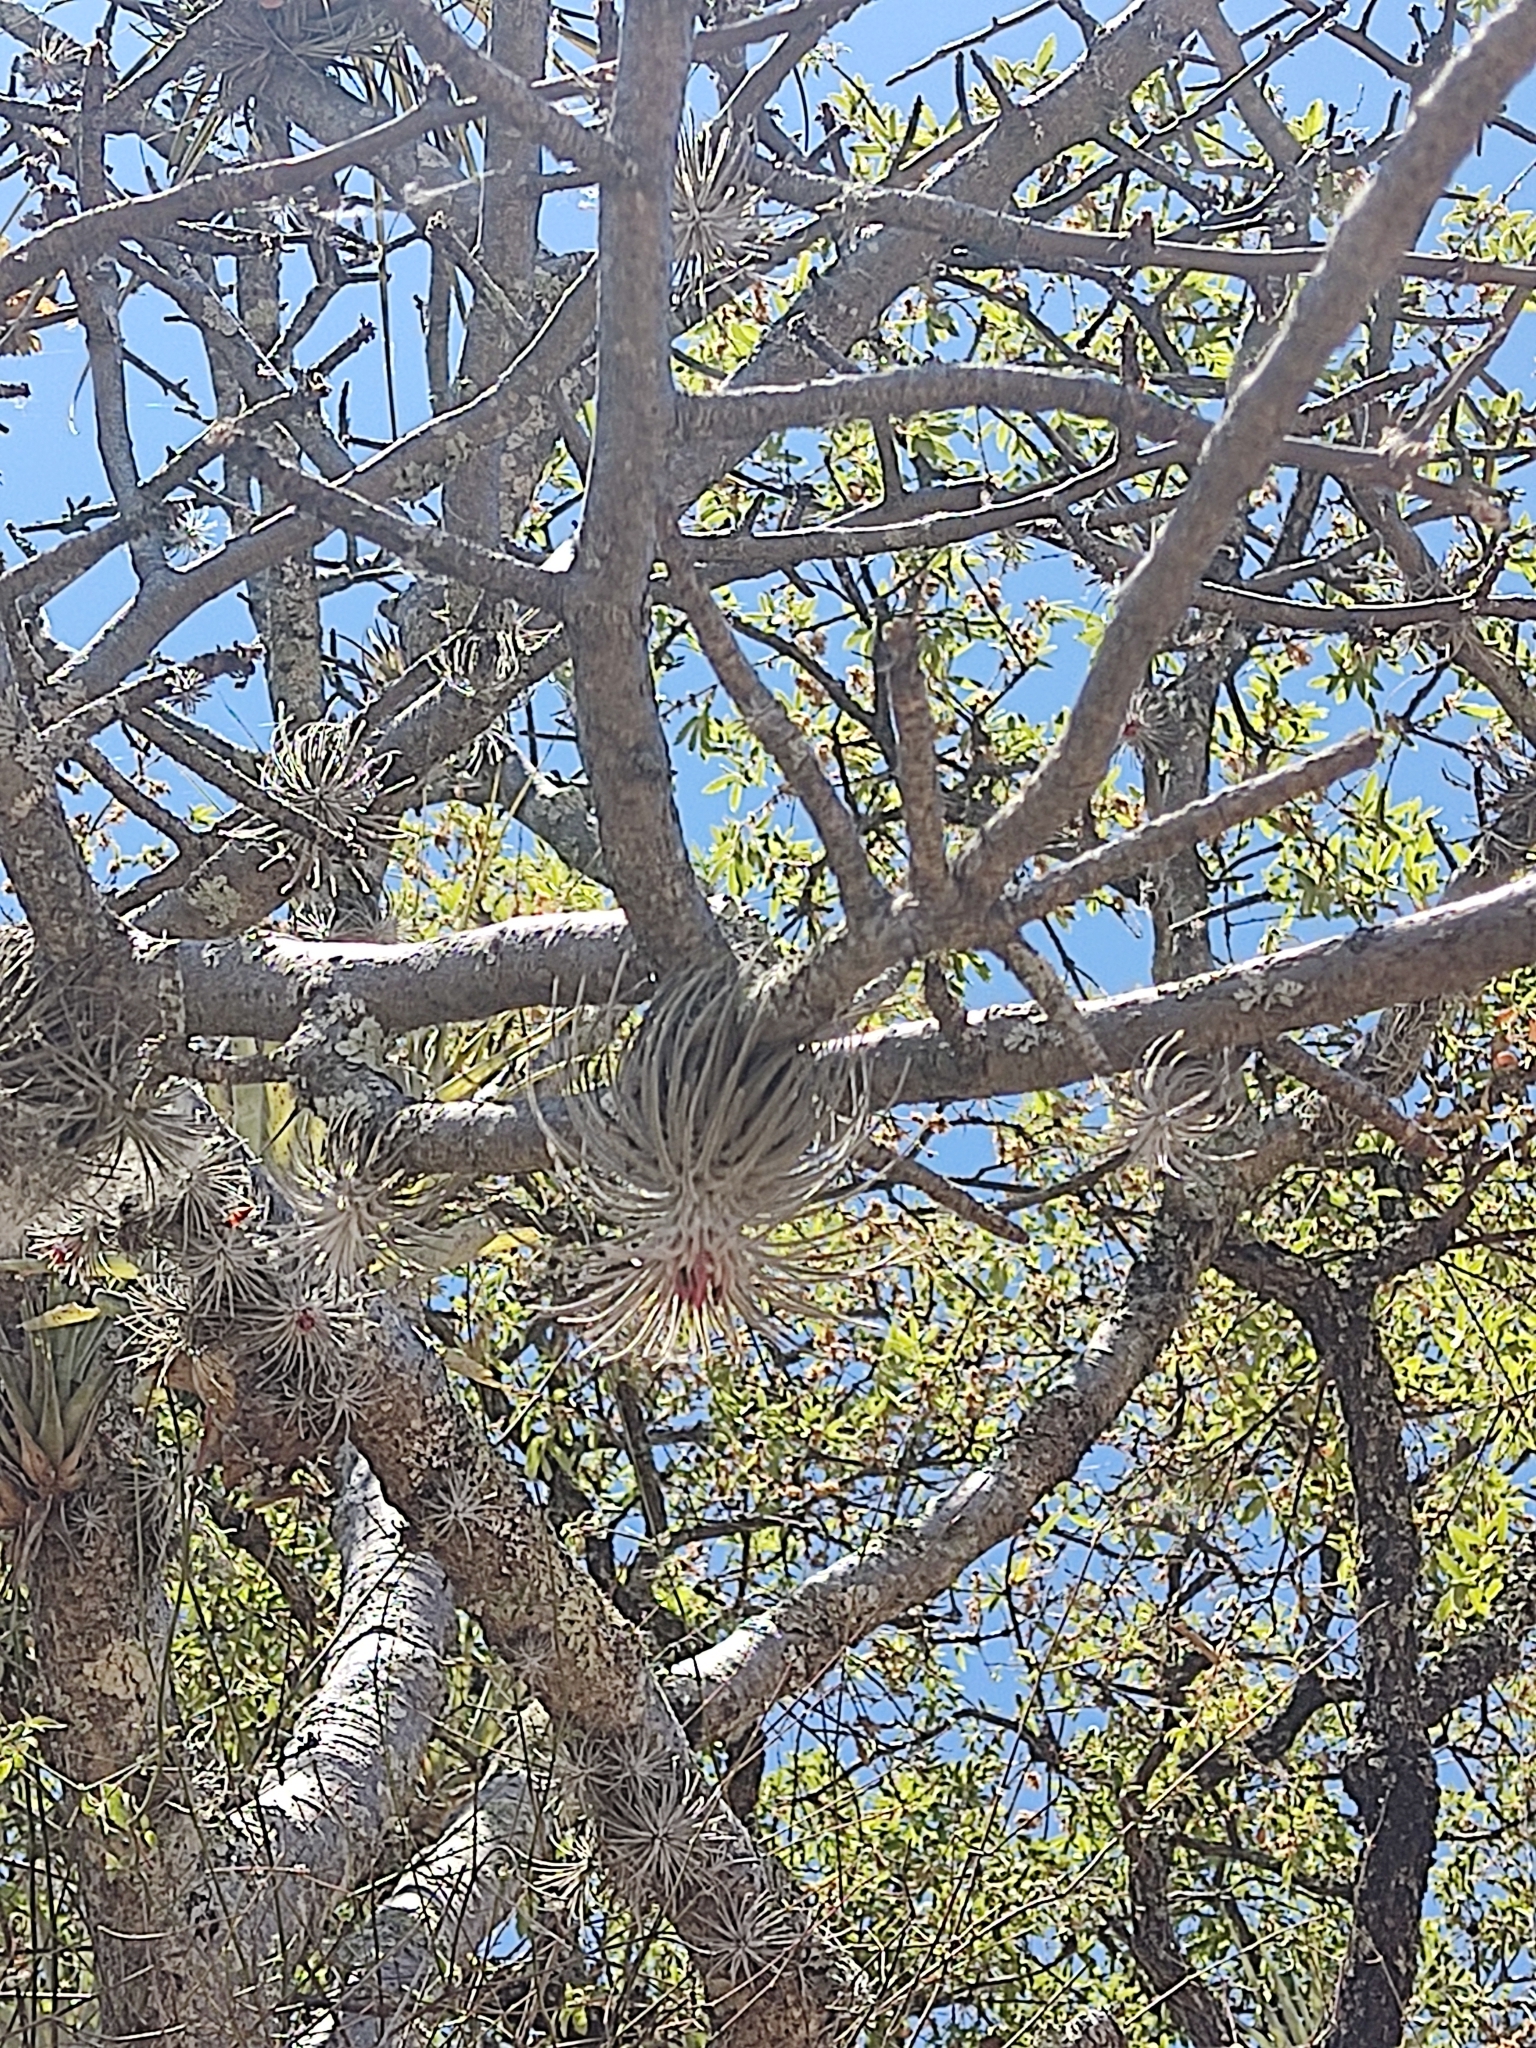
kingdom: Plantae
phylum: Tracheophyta
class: Liliopsida
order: Poales
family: Bromeliaceae
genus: Tillandsia
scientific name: Tillandsia atroviridipetala
